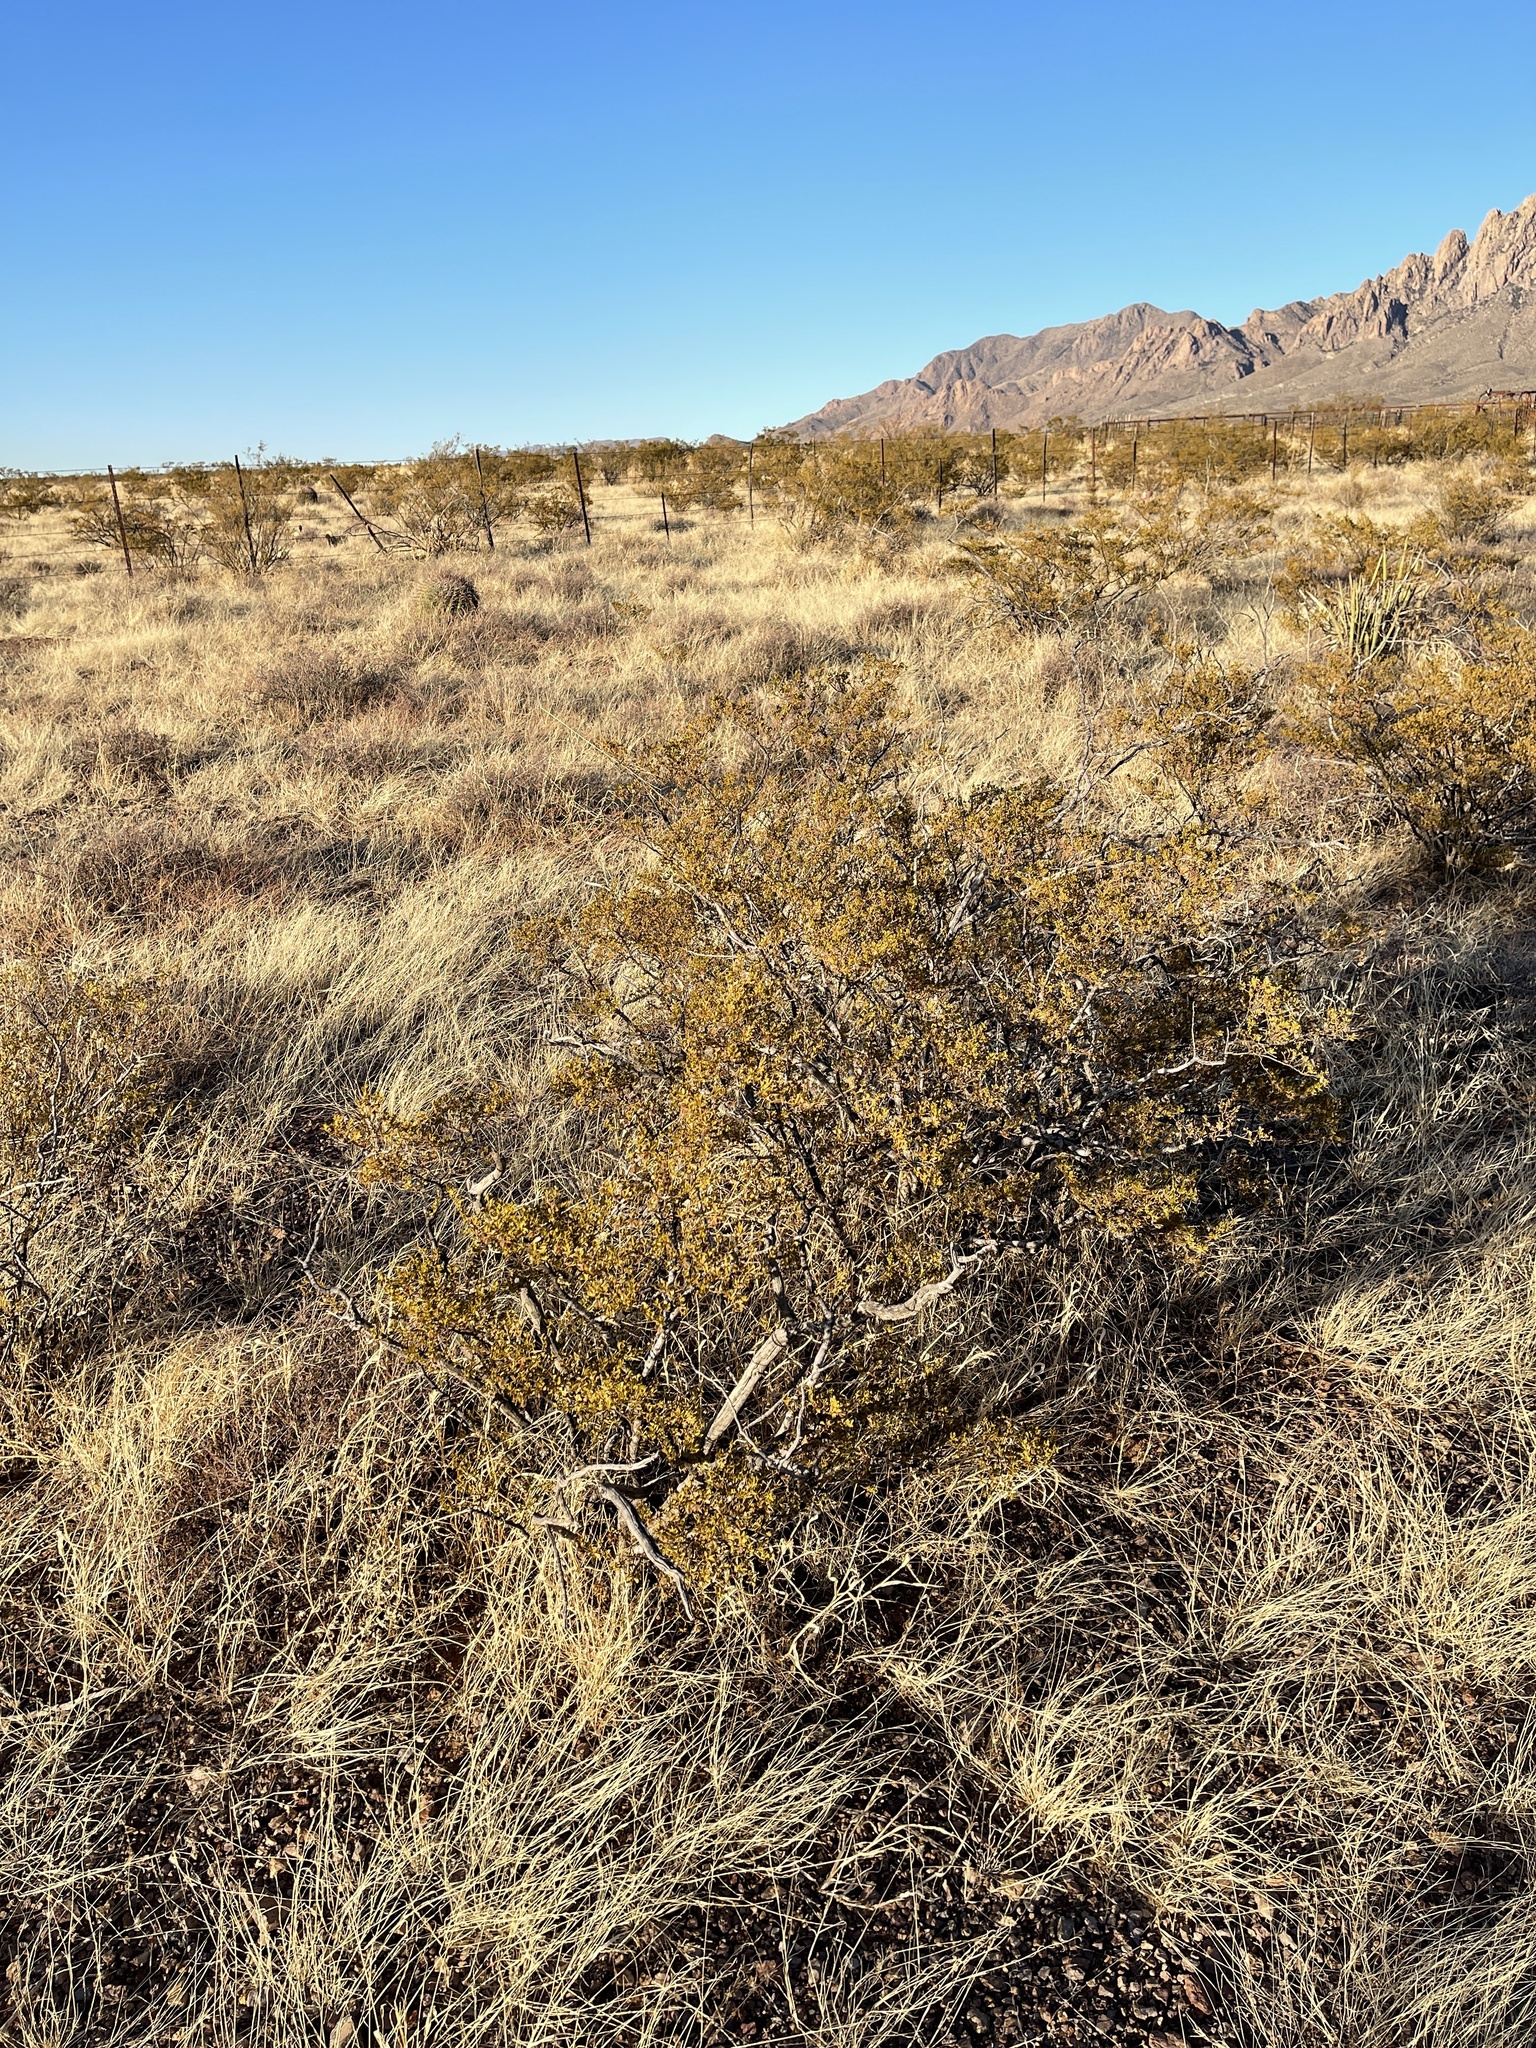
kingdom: Plantae
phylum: Tracheophyta
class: Magnoliopsida
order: Zygophyllales
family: Zygophyllaceae
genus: Larrea
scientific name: Larrea tridentata
